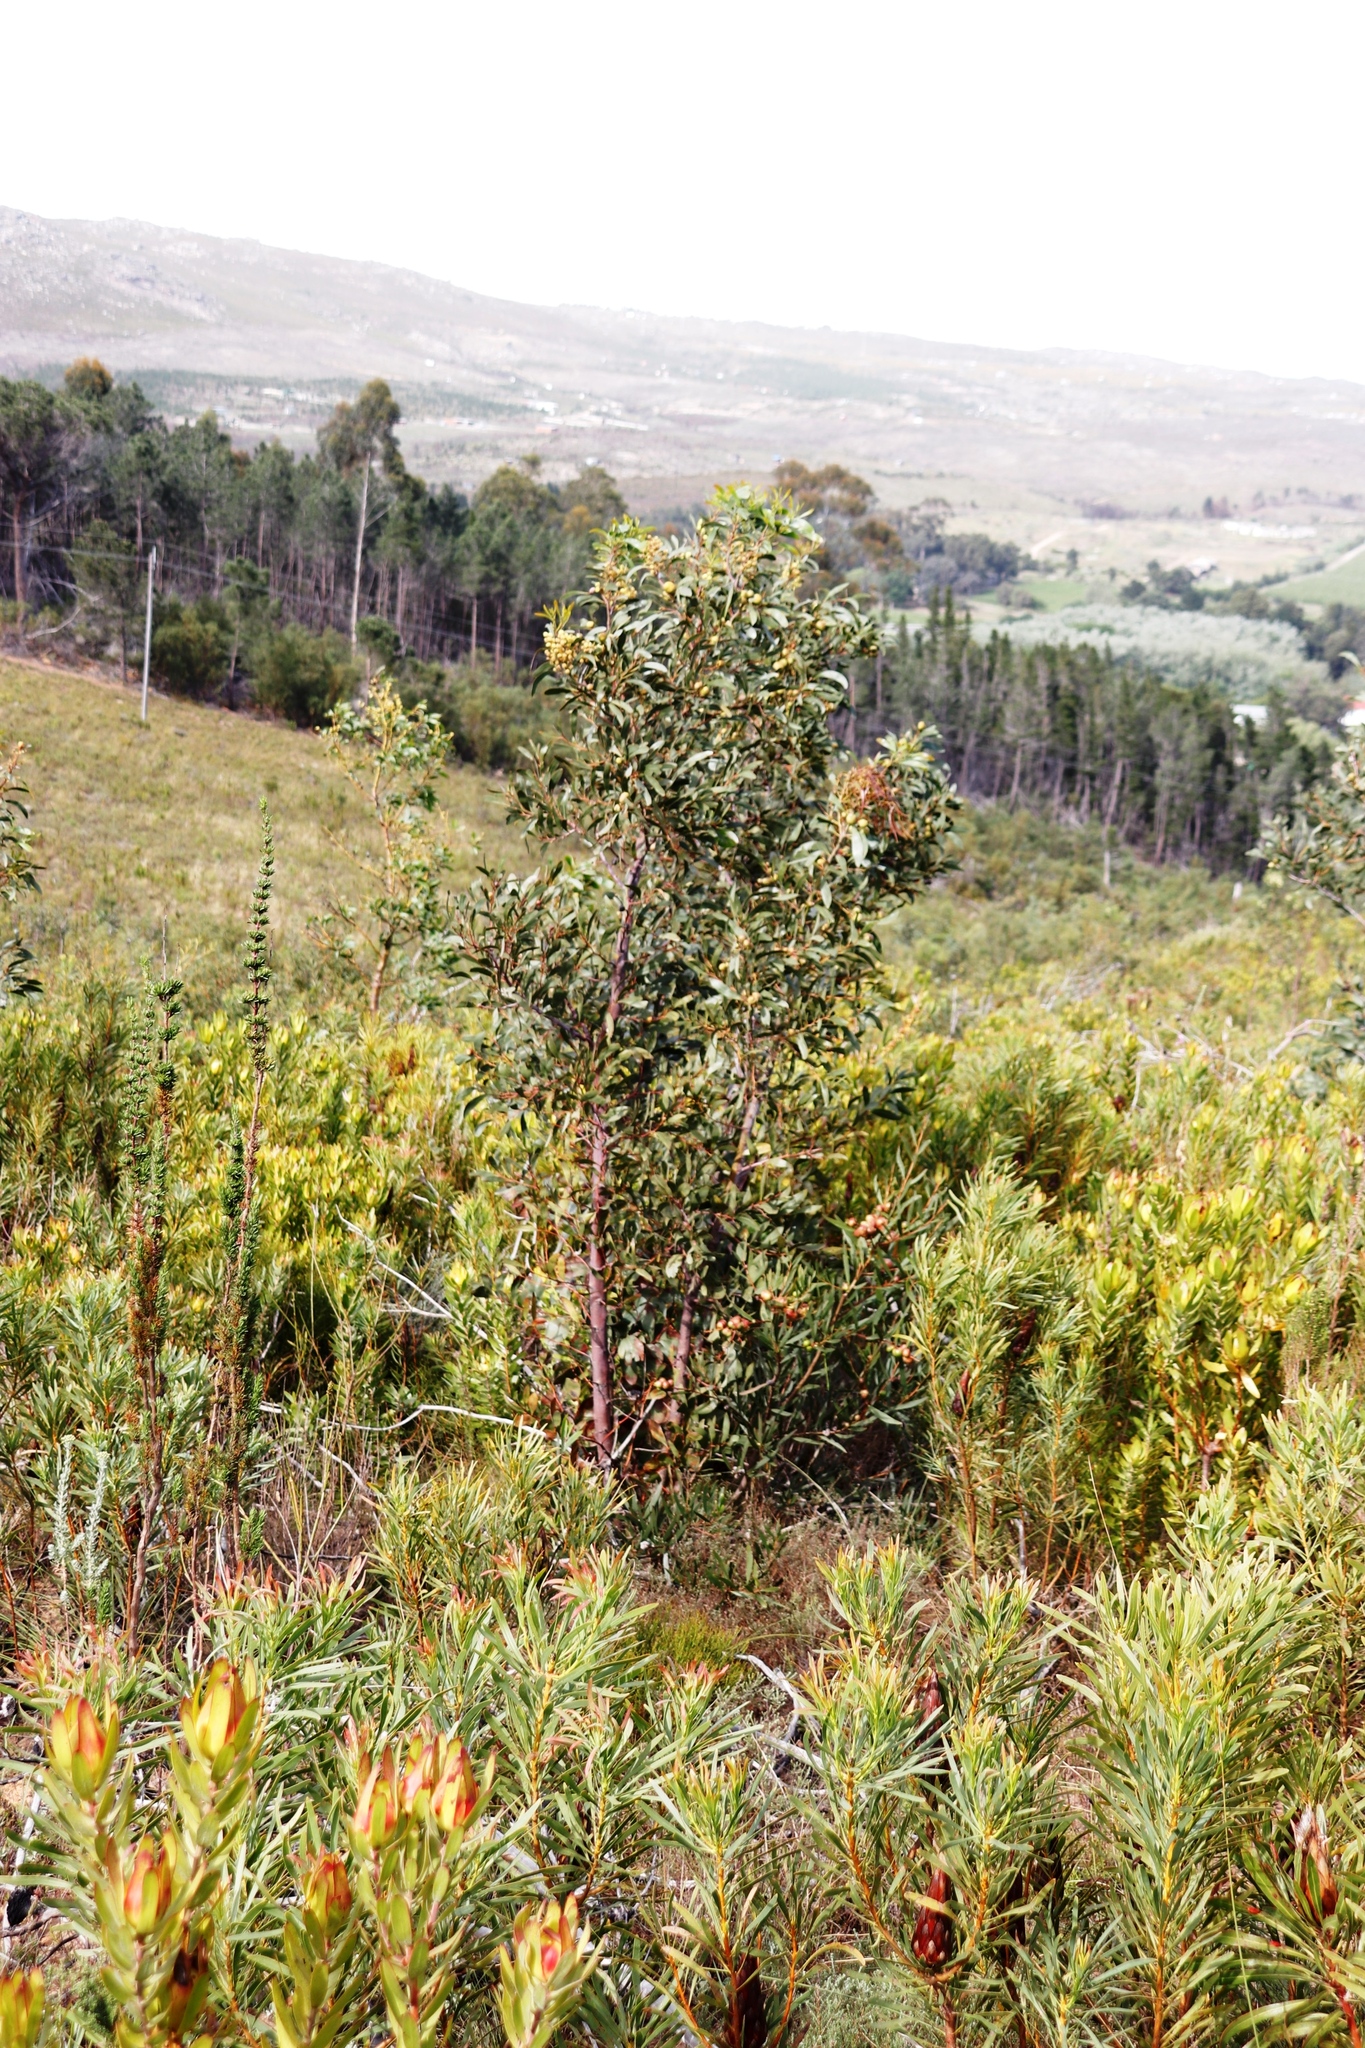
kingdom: Plantae
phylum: Tracheophyta
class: Magnoliopsida
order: Fabales
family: Fabaceae
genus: Acacia
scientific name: Acacia pycnantha
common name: Golden wattle
